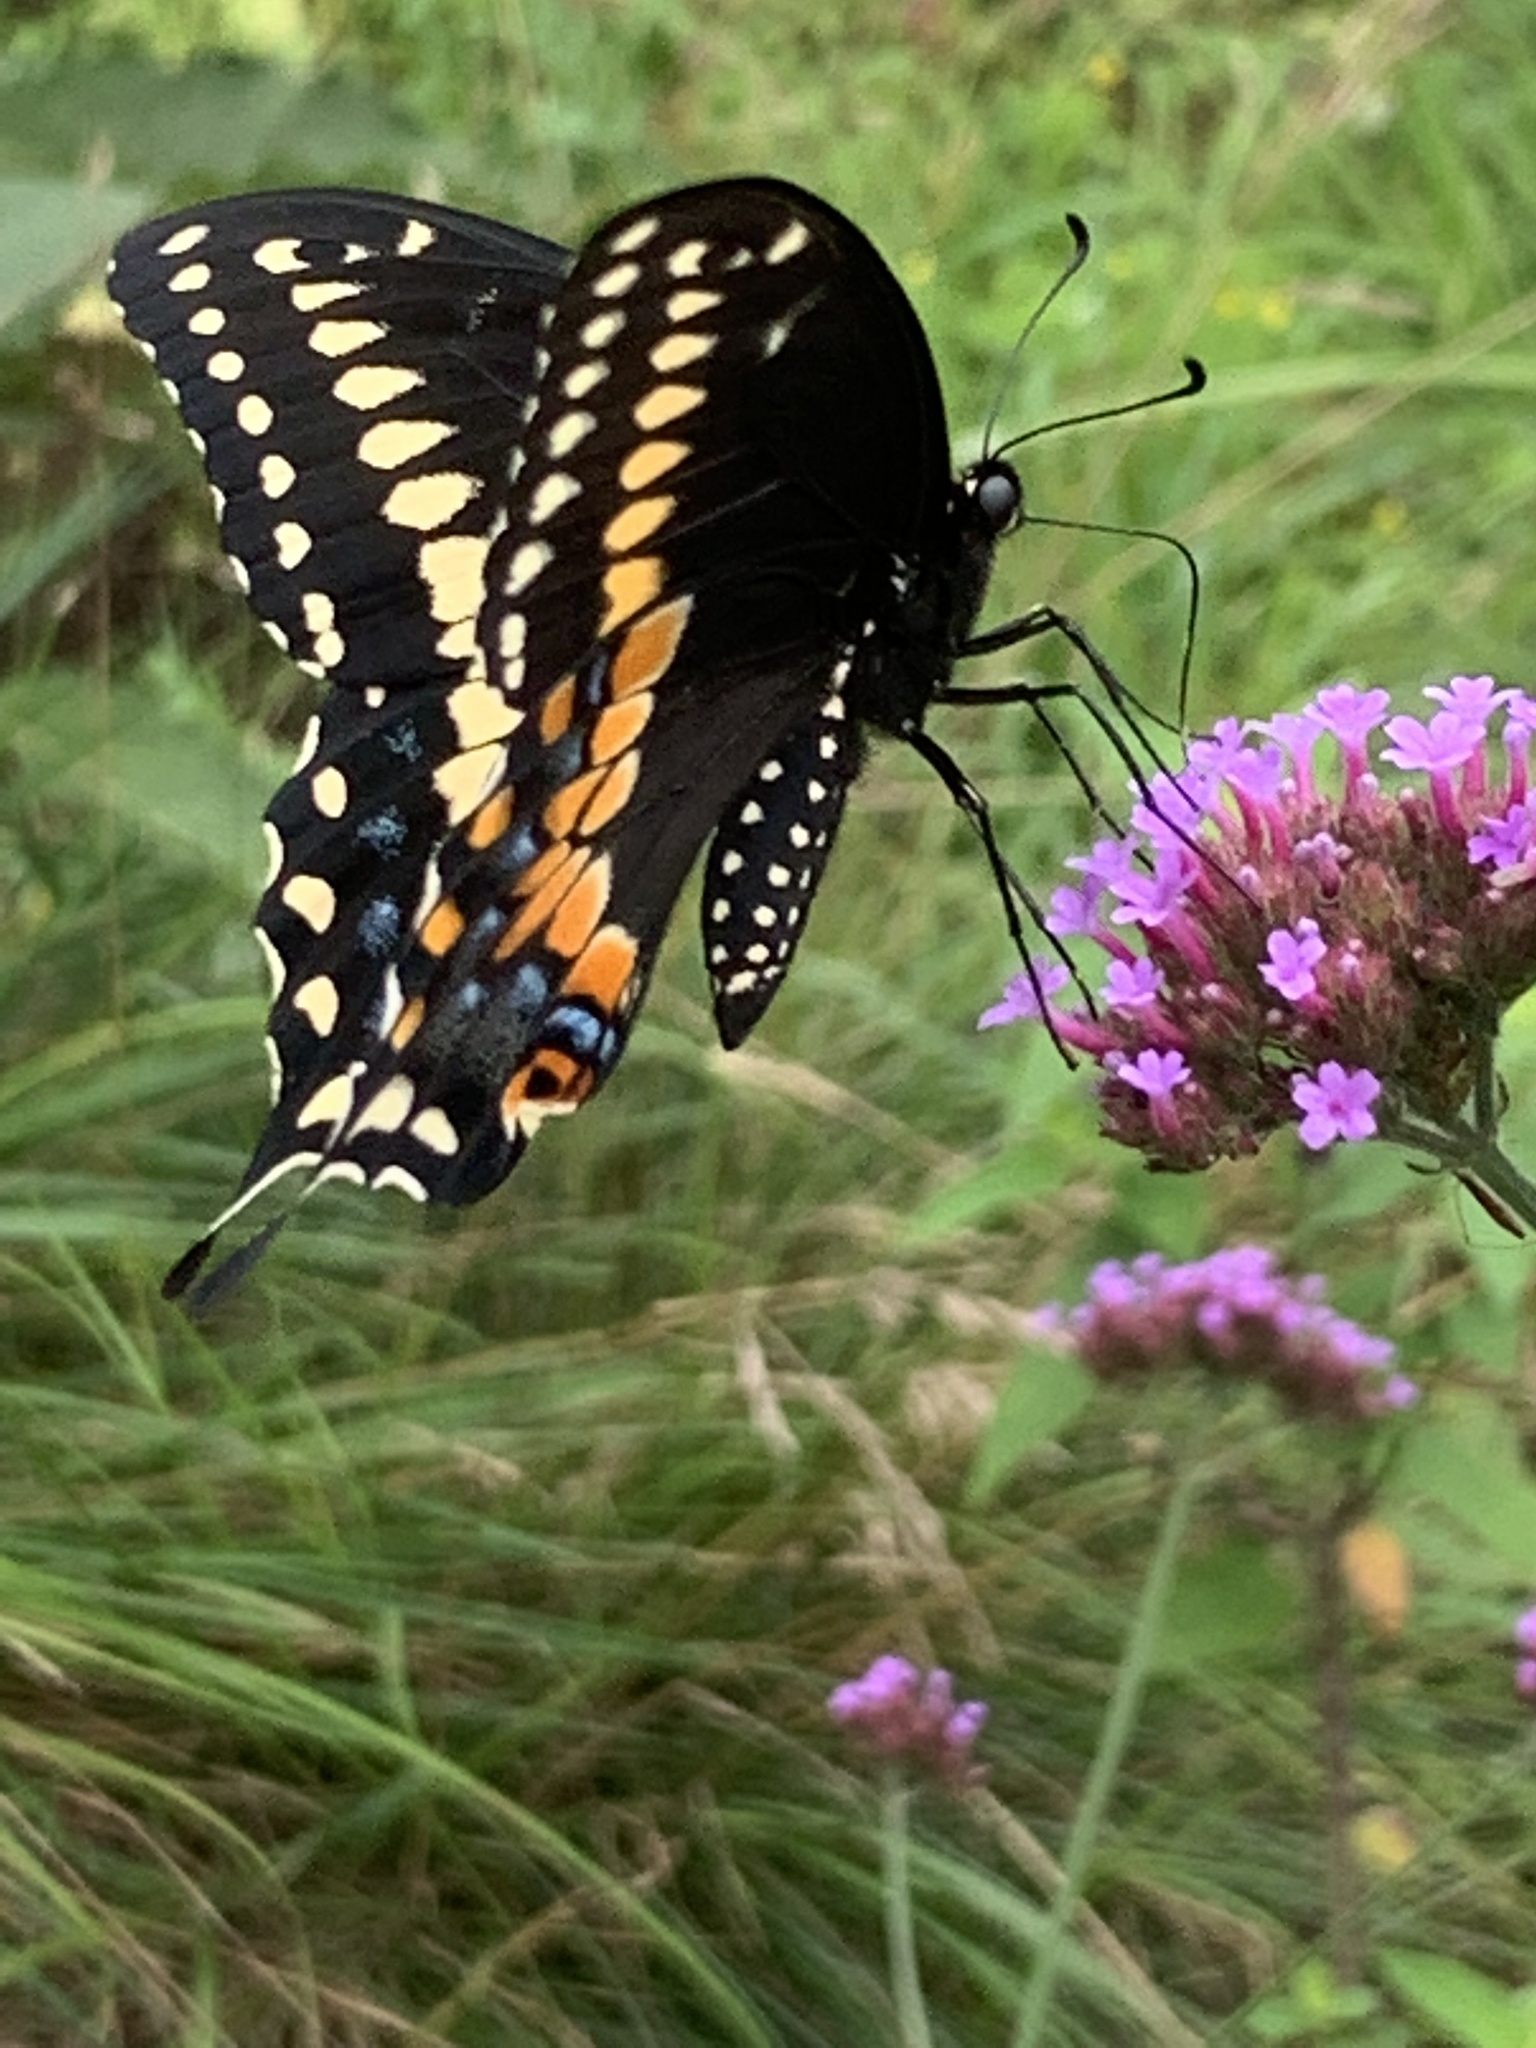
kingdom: Animalia
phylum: Arthropoda
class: Insecta
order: Lepidoptera
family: Papilionidae
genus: Papilio
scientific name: Papilio polyxenes
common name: Black swallowtail
